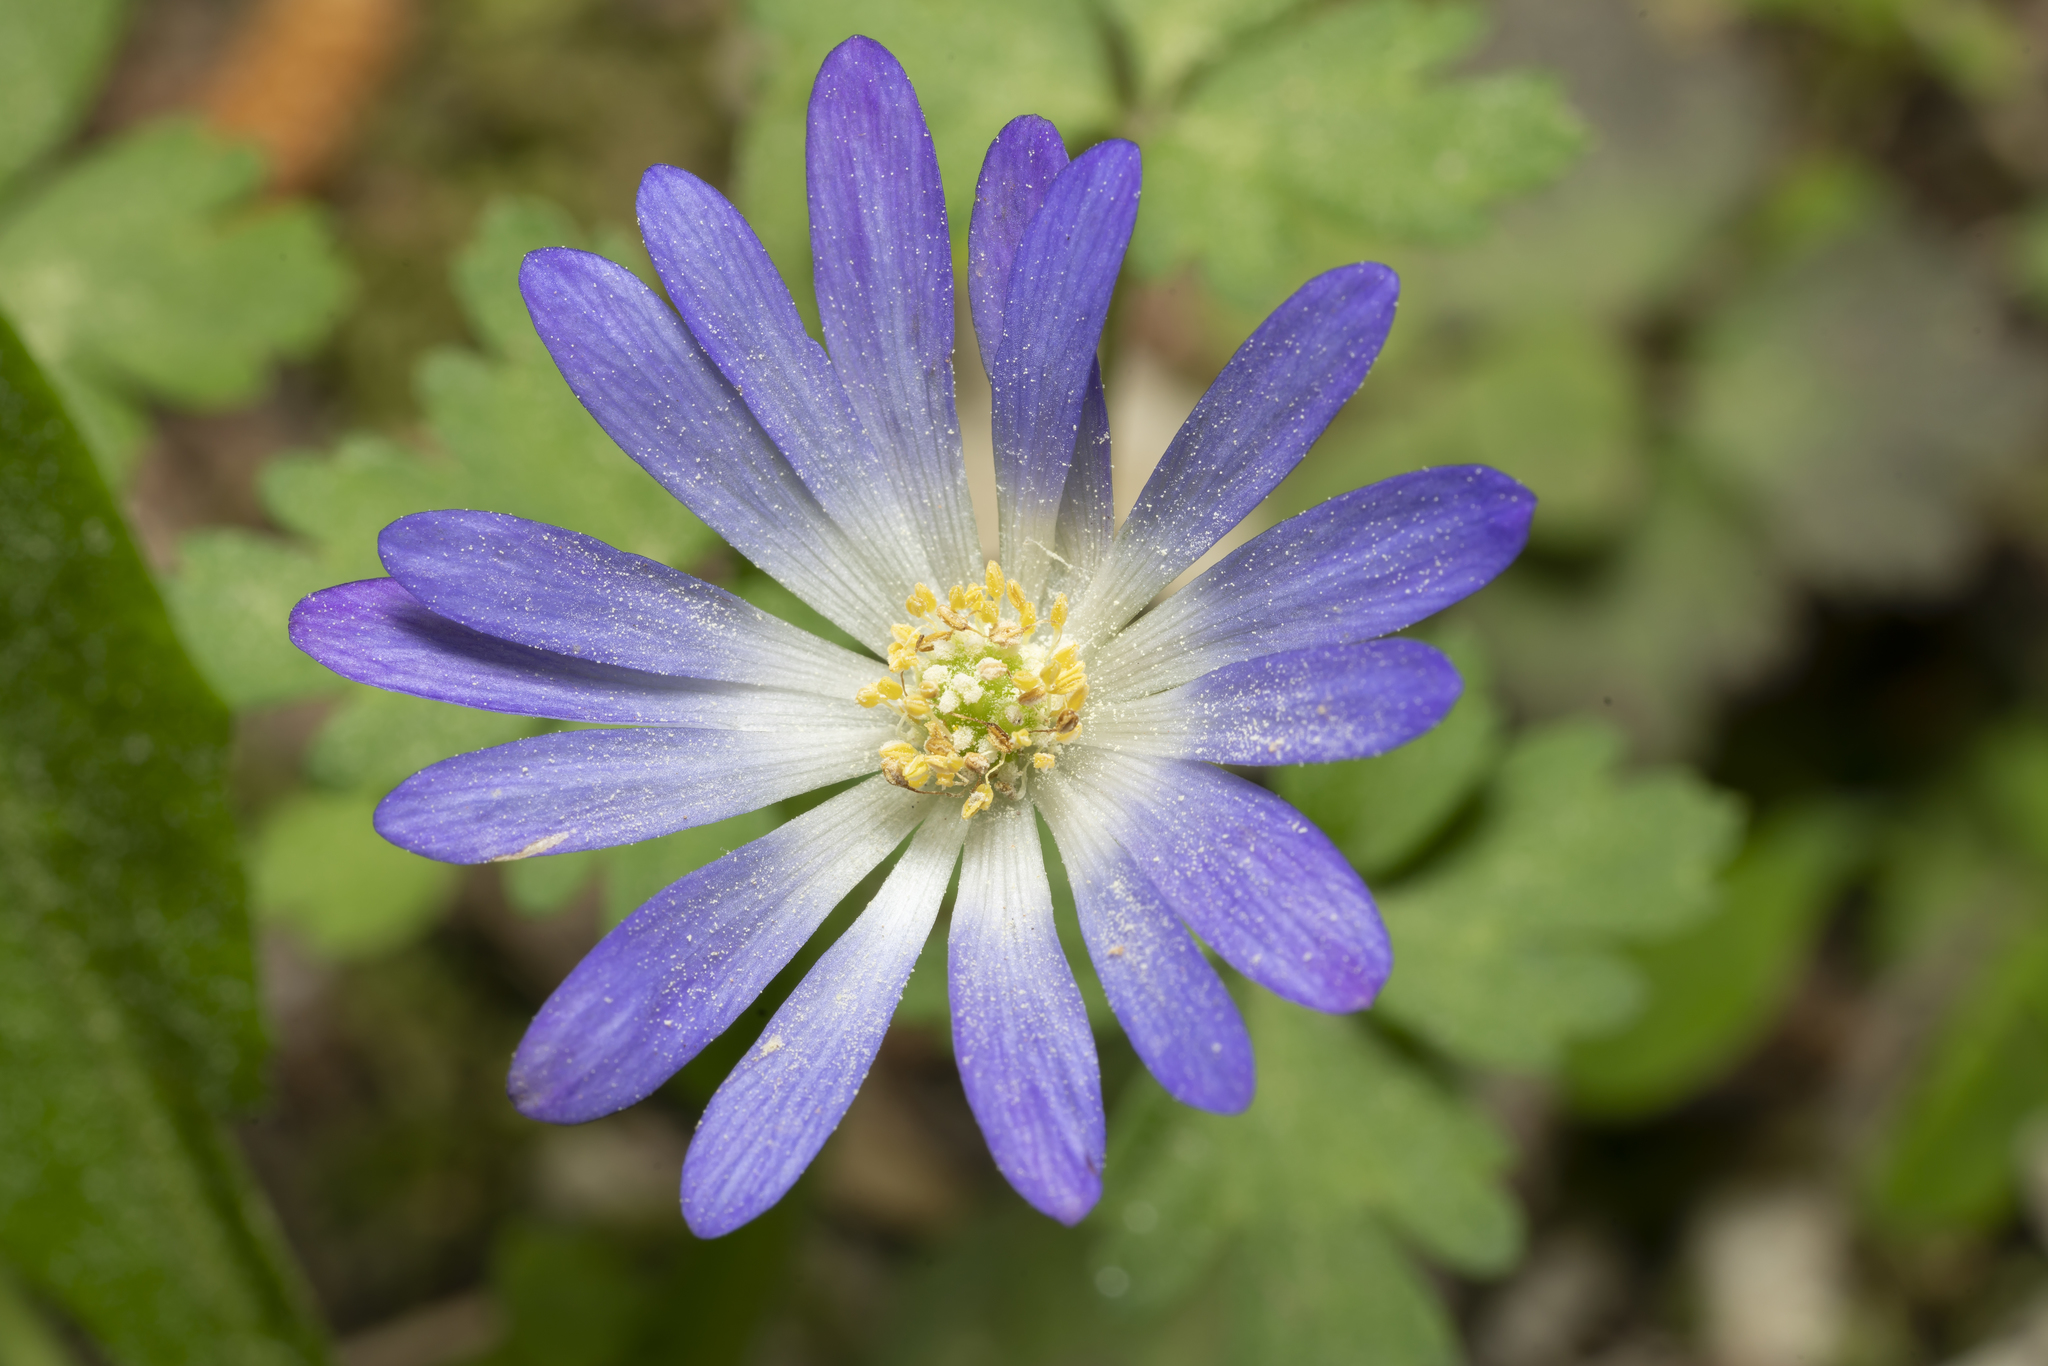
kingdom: Plantae
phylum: Tracheophyta
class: Magnoliopsida
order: Ranunculales
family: Ranunculaceae
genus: Anemone
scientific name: Anemone blanda
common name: Balkan anemone
